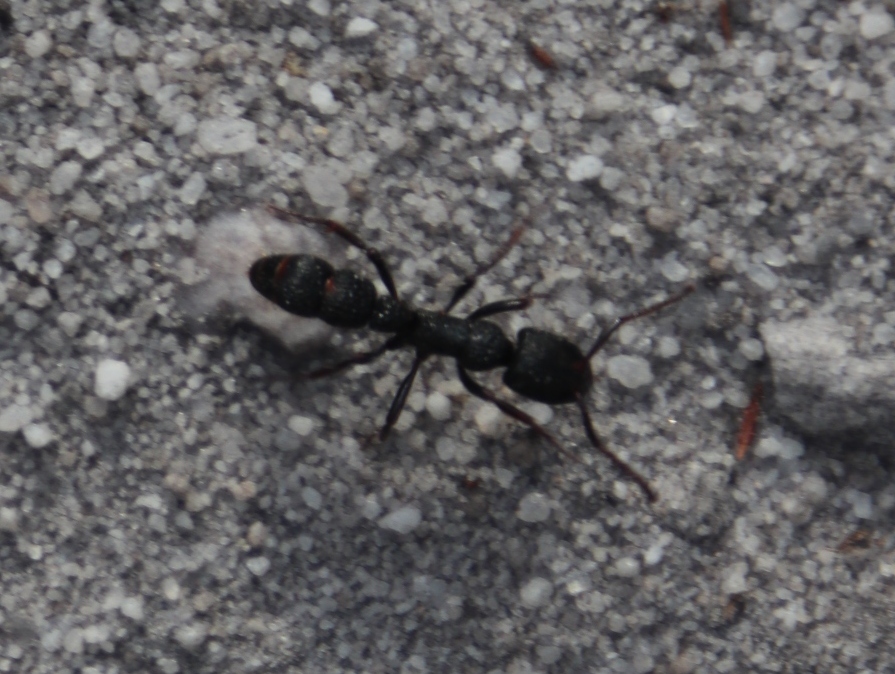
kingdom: Animalia
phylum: Arthropoda
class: Insecta
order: Hymenoptera
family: Formicidae
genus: Bothroponera
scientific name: Bothroponera cavernosa
